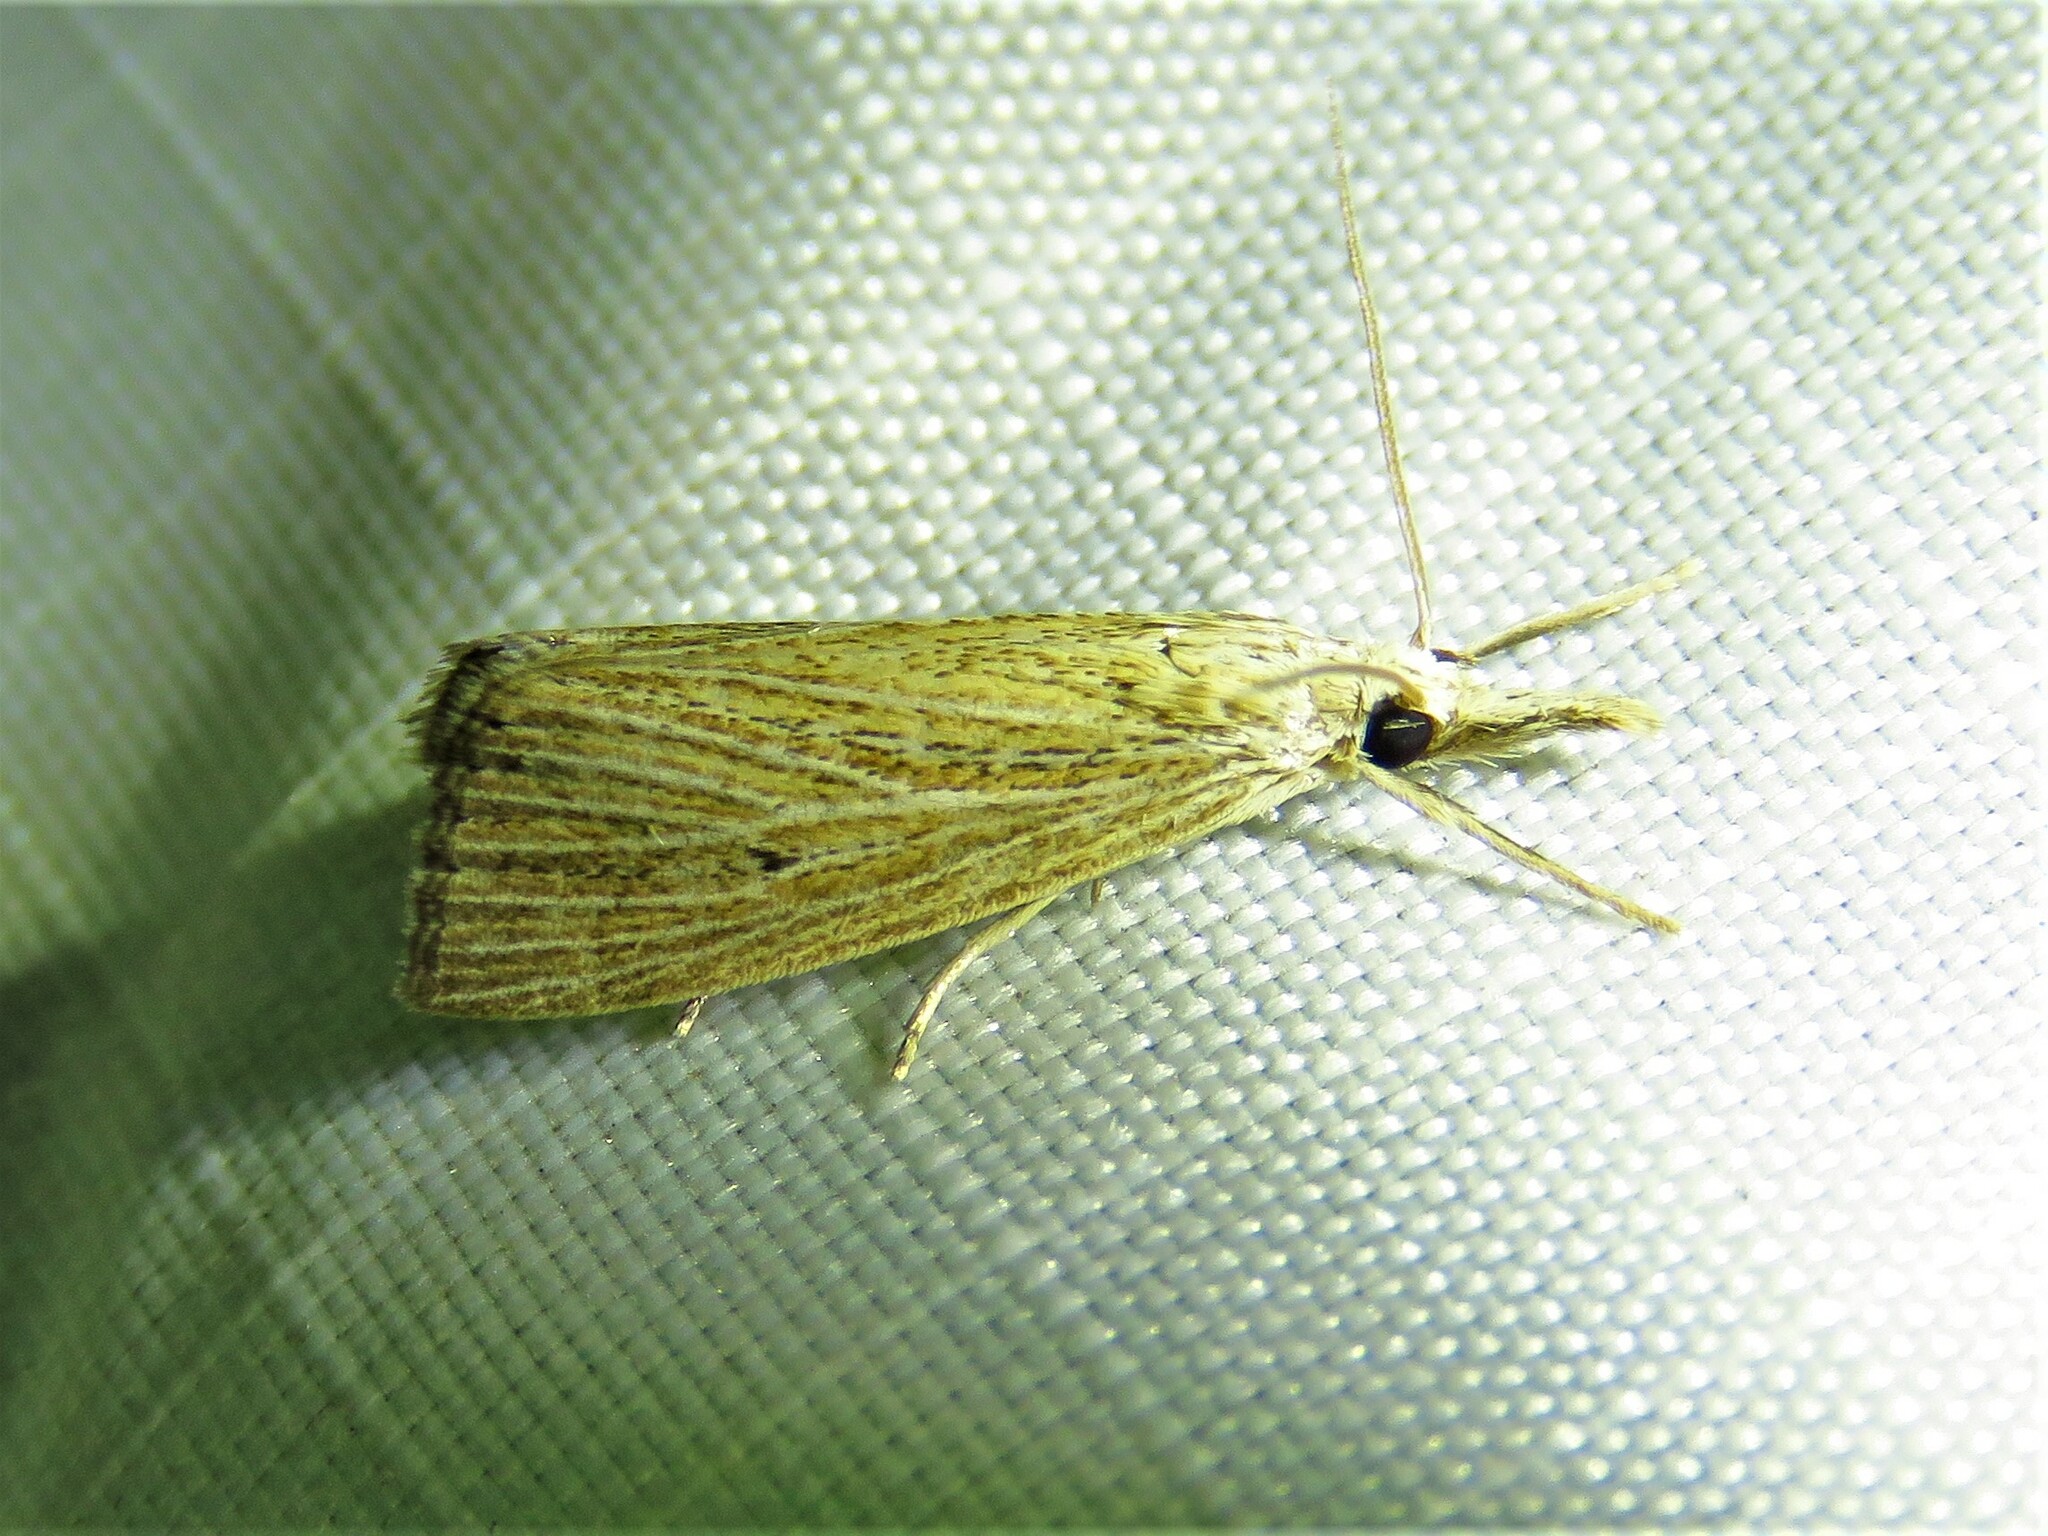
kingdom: Animalia
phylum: Arthropoda
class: Insecta
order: Lepidoptera
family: Crambidae
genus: Eoreuma
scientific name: Eoreuma densellus
